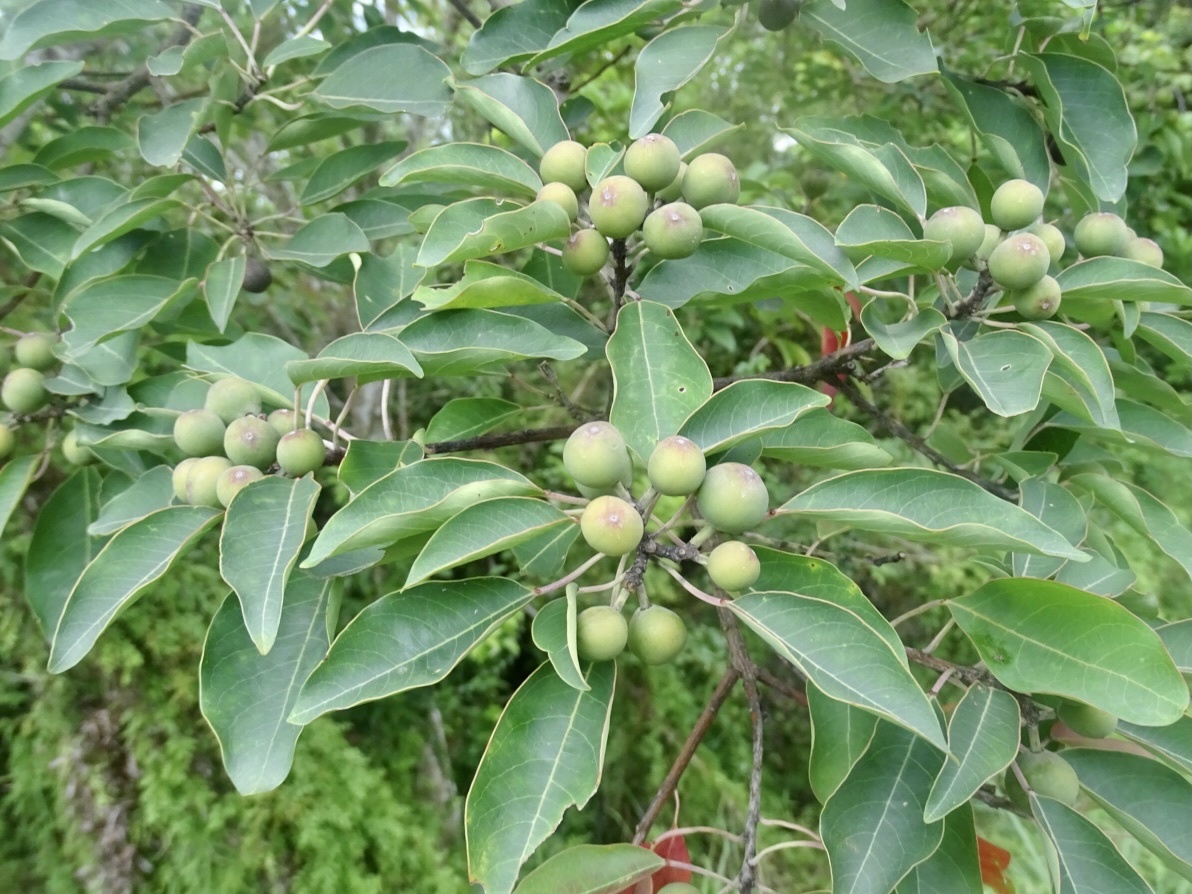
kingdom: Plantae
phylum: Tracheophyta
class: Magnoliopsida
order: Malpighiales
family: Euphorbiaceae
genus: Triadica
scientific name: Triadica cochinchinensis
